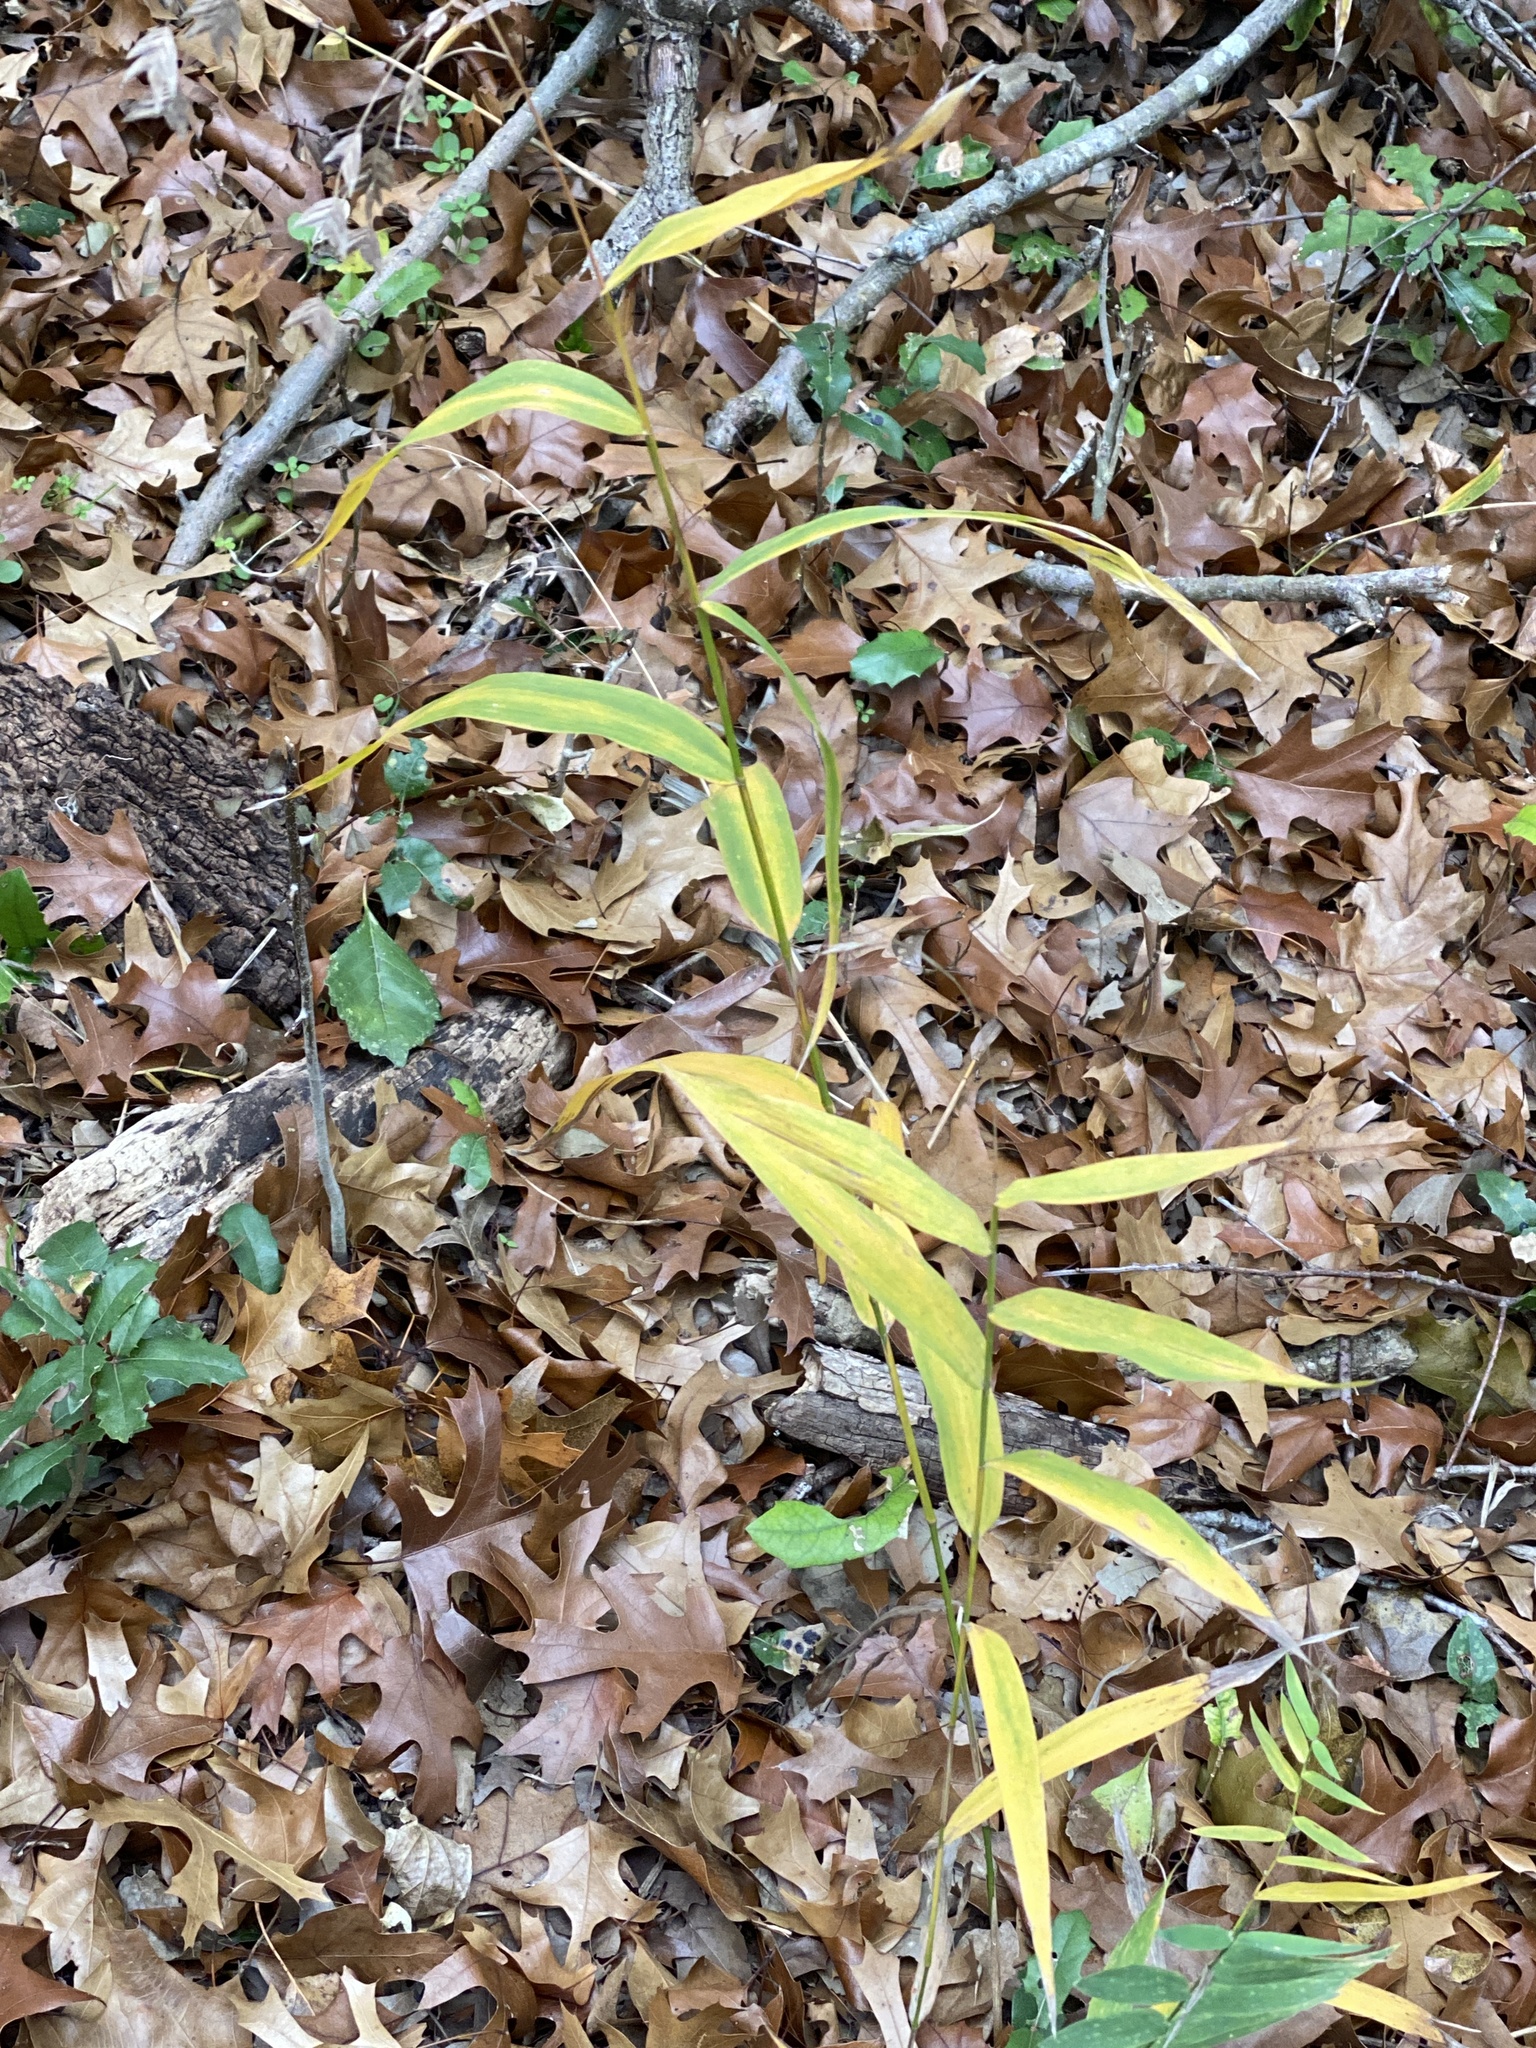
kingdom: Plantae
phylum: Tracheophyta
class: Liliopsida
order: Poales
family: Poaceae
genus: Chasmanthium
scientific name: Chasmanthium latifolium
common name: Broad-leaved chasmanthium
